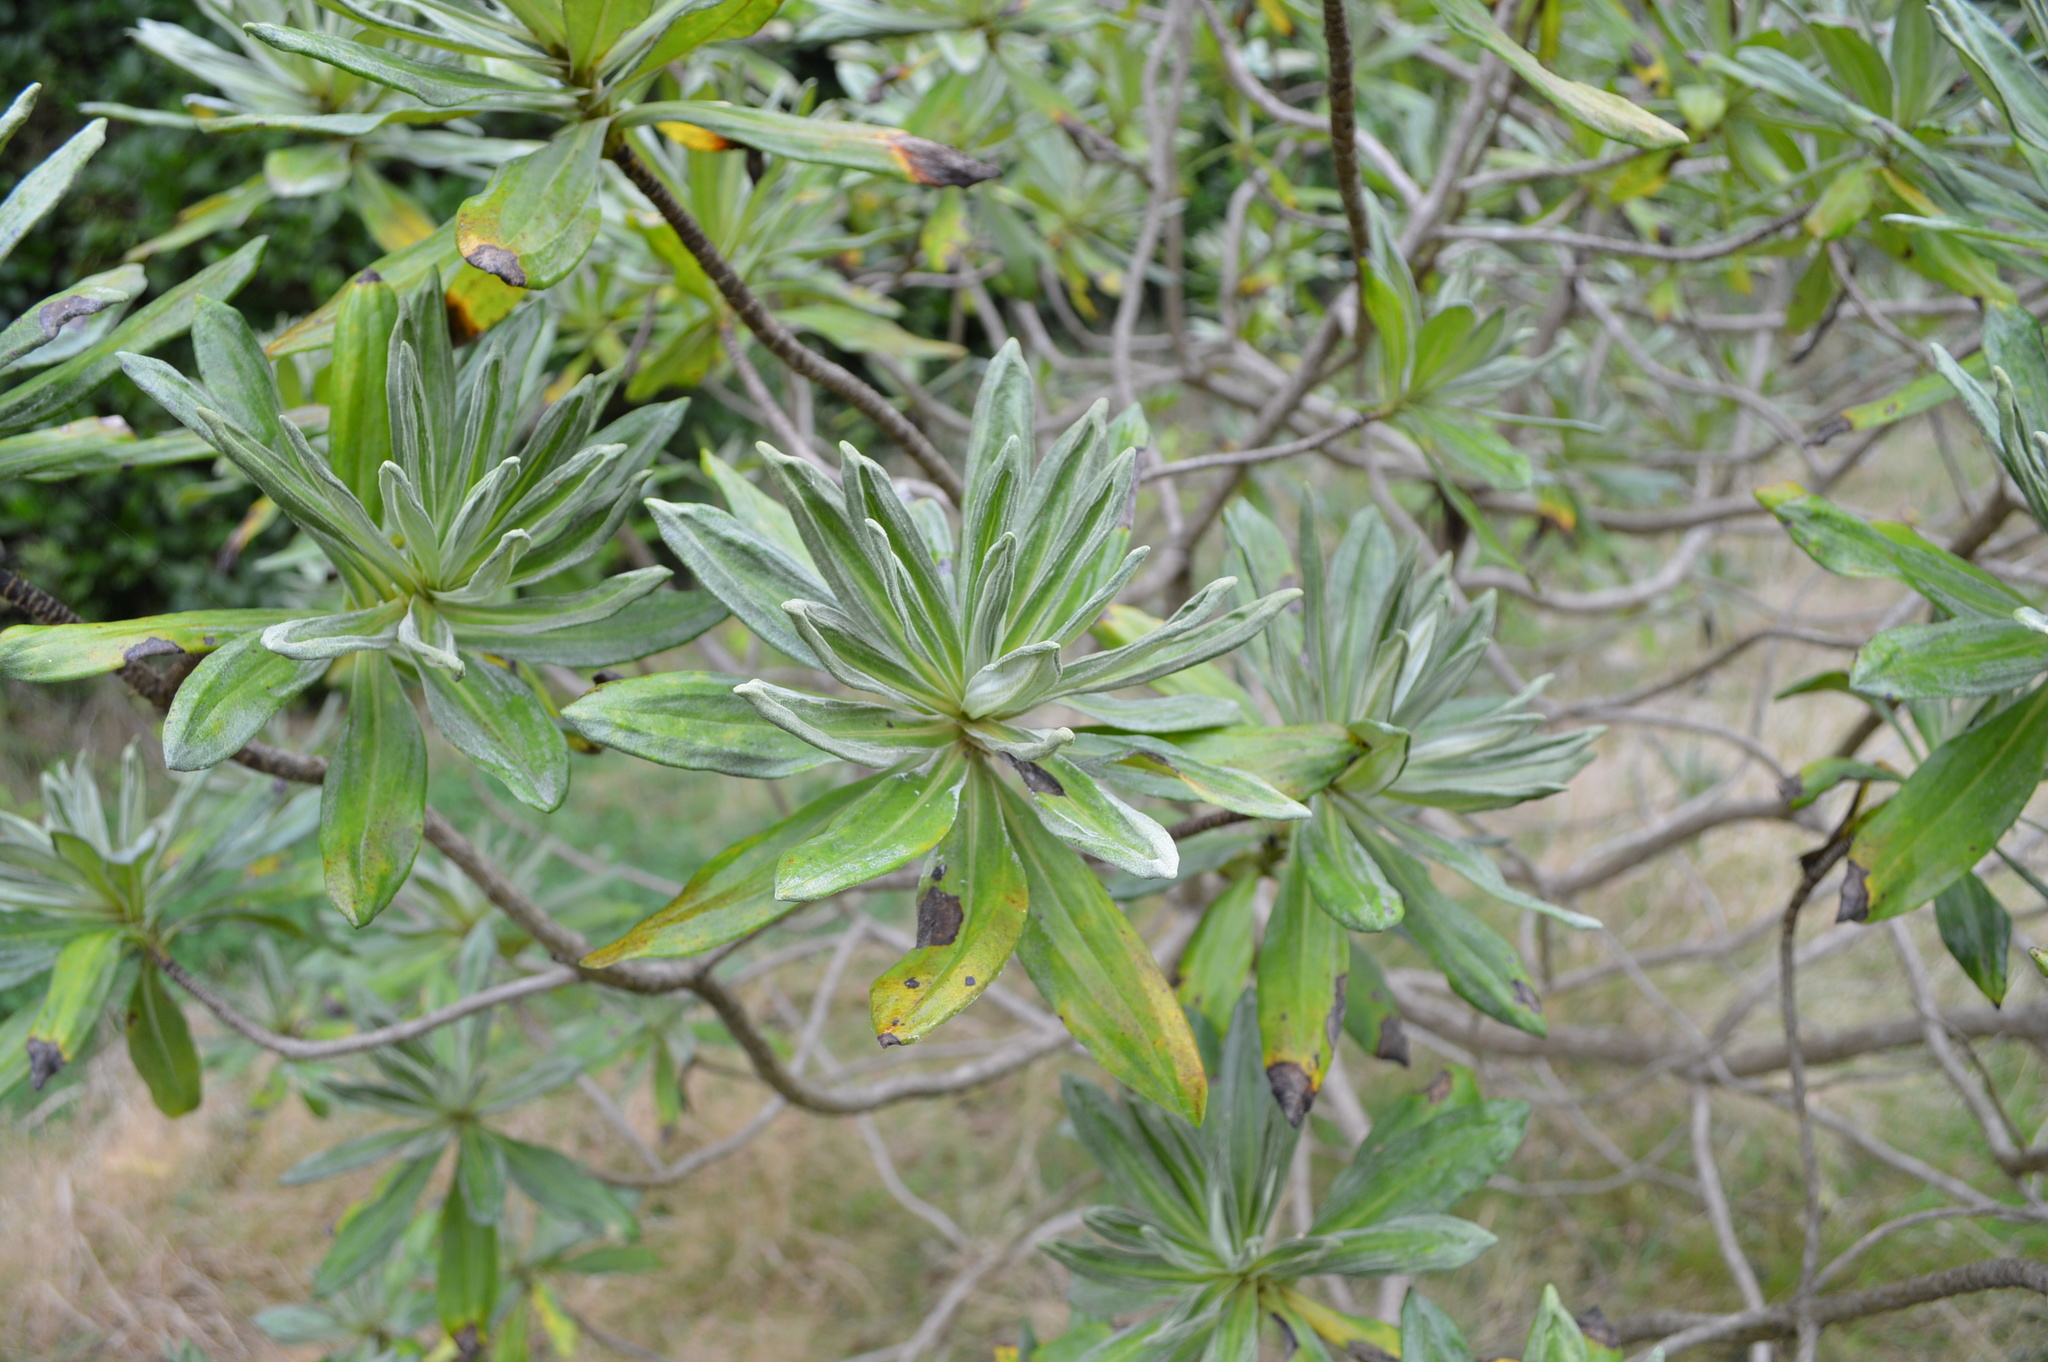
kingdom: Plantae
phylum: Tracheophyta
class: Magnoliopsida
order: Asterales
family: Asteraceae
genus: Brachyglottis
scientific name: Brachyglottis huntii
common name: Chatham island christmas tree
